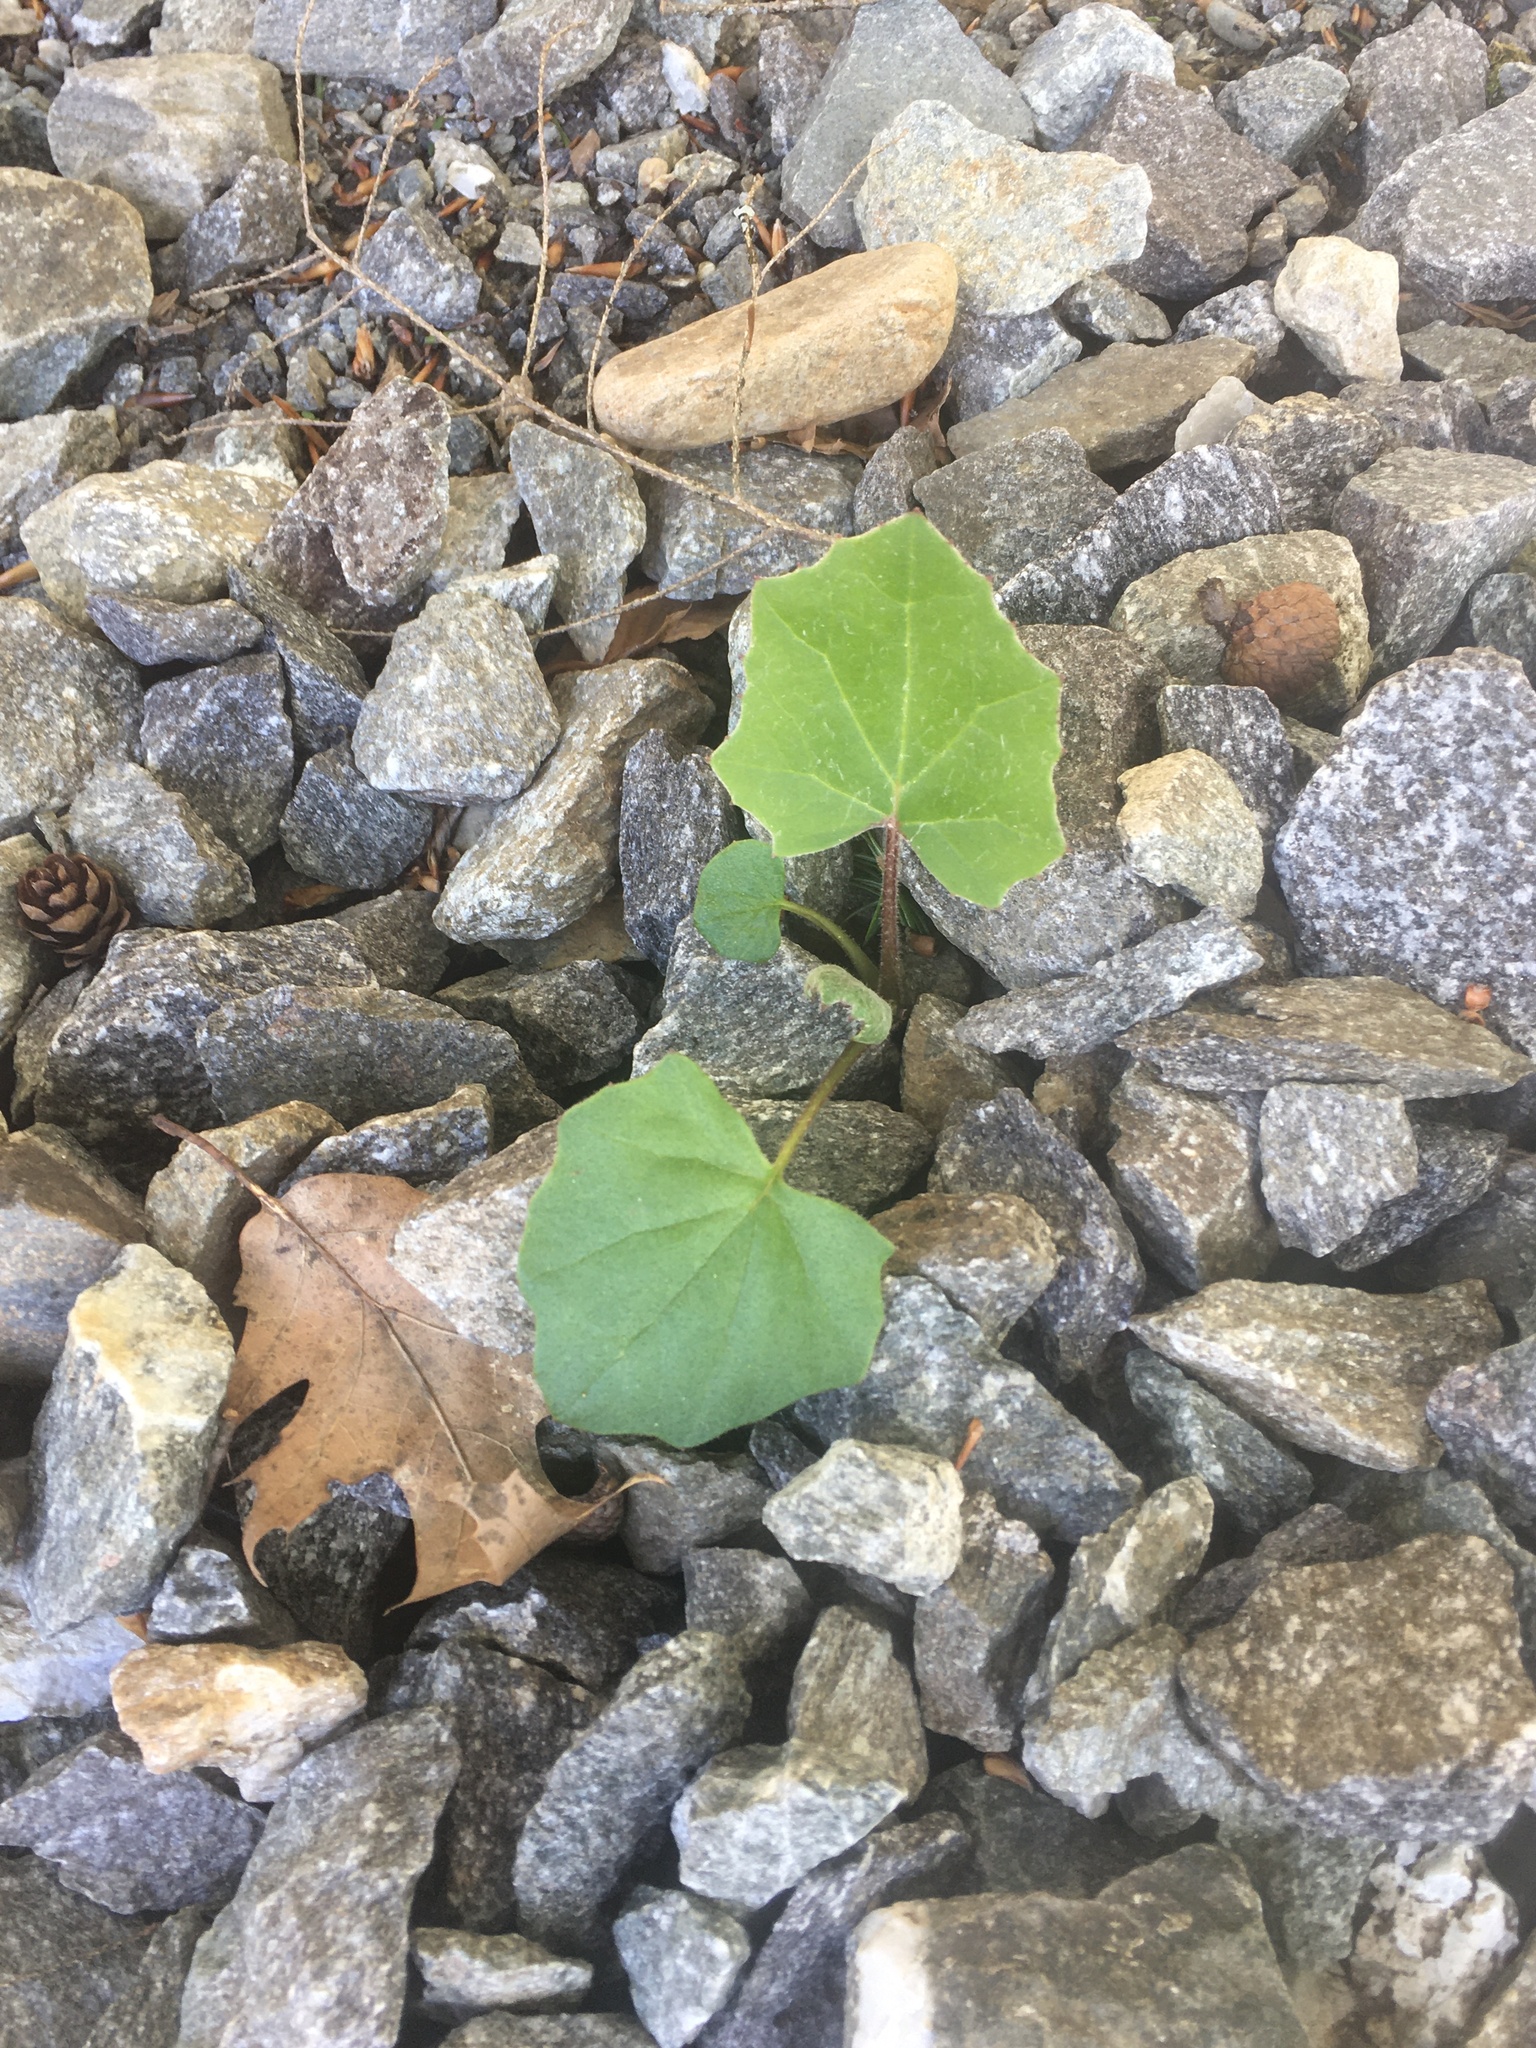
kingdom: Plantae
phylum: Tracheophyta
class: Magnoliopsida
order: Asterales
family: Asteraceae
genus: Tussilago
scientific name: Tussilago farfara
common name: Coltsfoot
